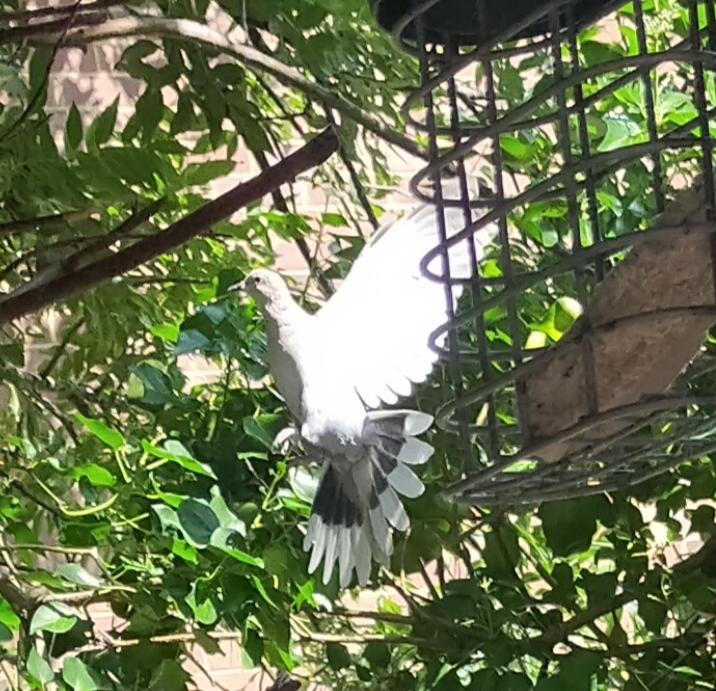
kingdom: Animalia
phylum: Chordata
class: Aves
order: Columbiformes
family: Columbidae
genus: Streptopelia
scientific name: Streptopelia decaocto
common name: Eurasian collared dove
